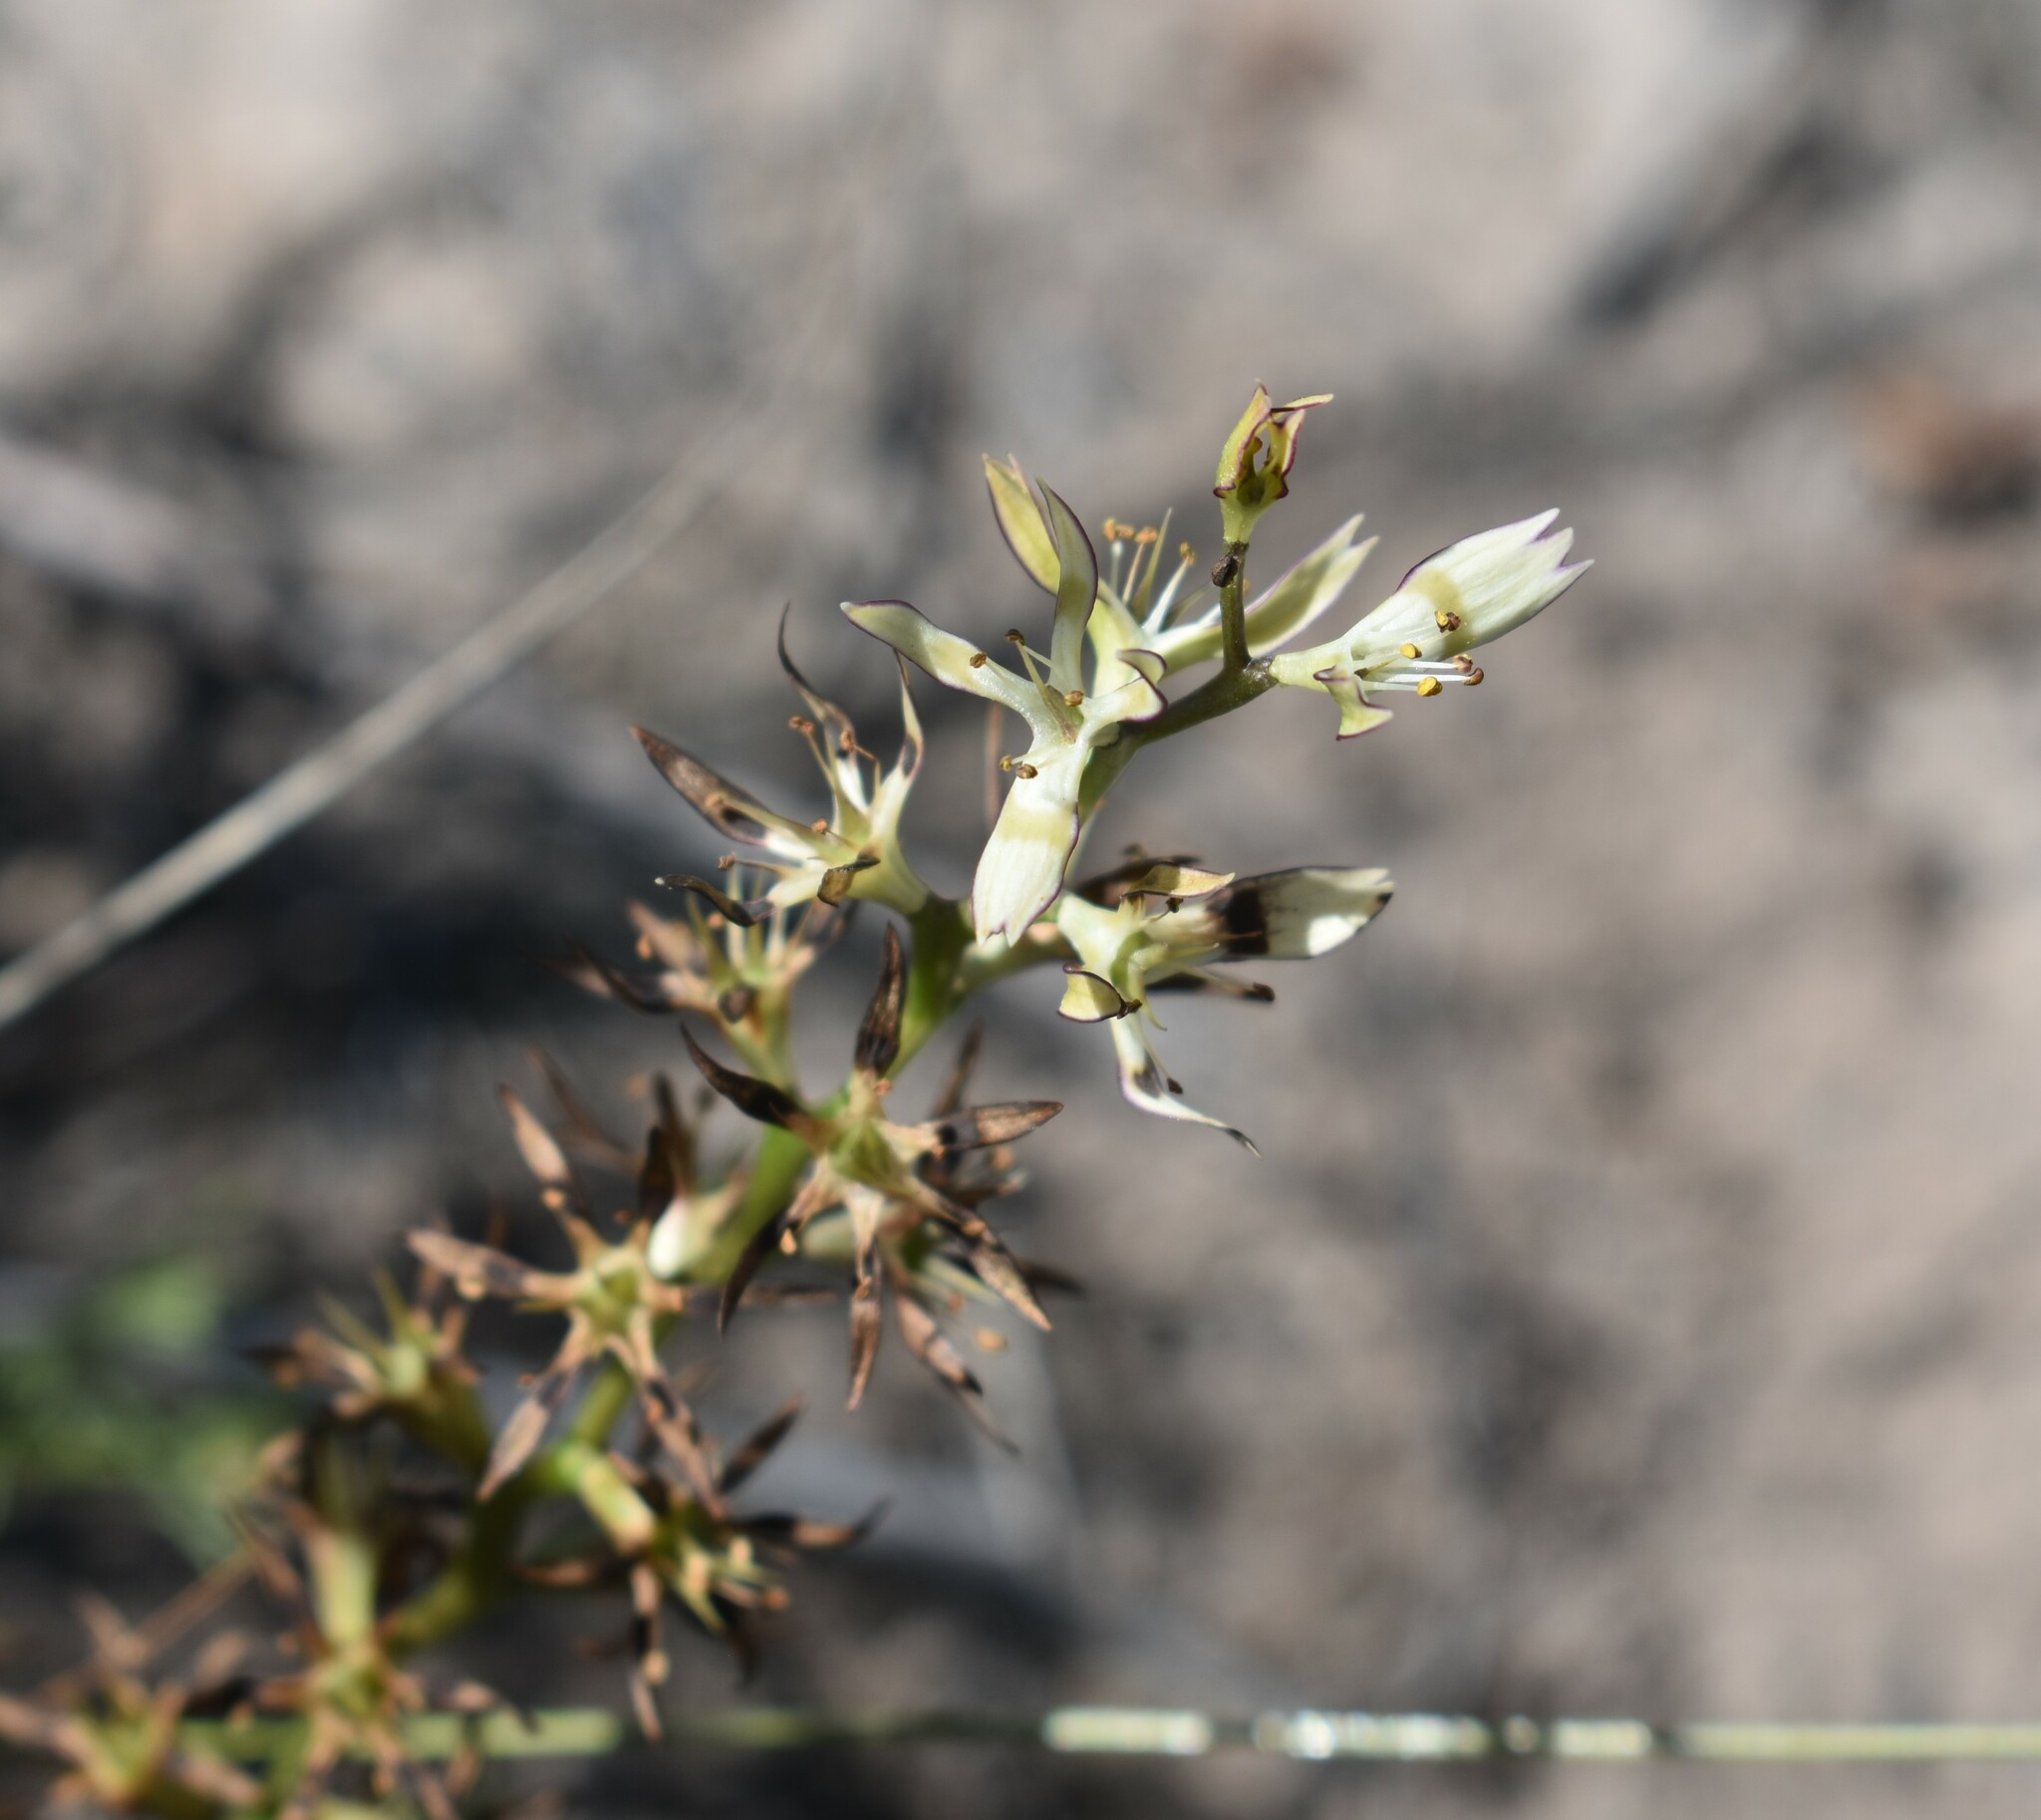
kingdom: Plantae
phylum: Tracheophyta
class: Liliopsida
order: Liliales
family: Colchicaceae
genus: Wurmbea
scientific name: Wurmbea variabilis
